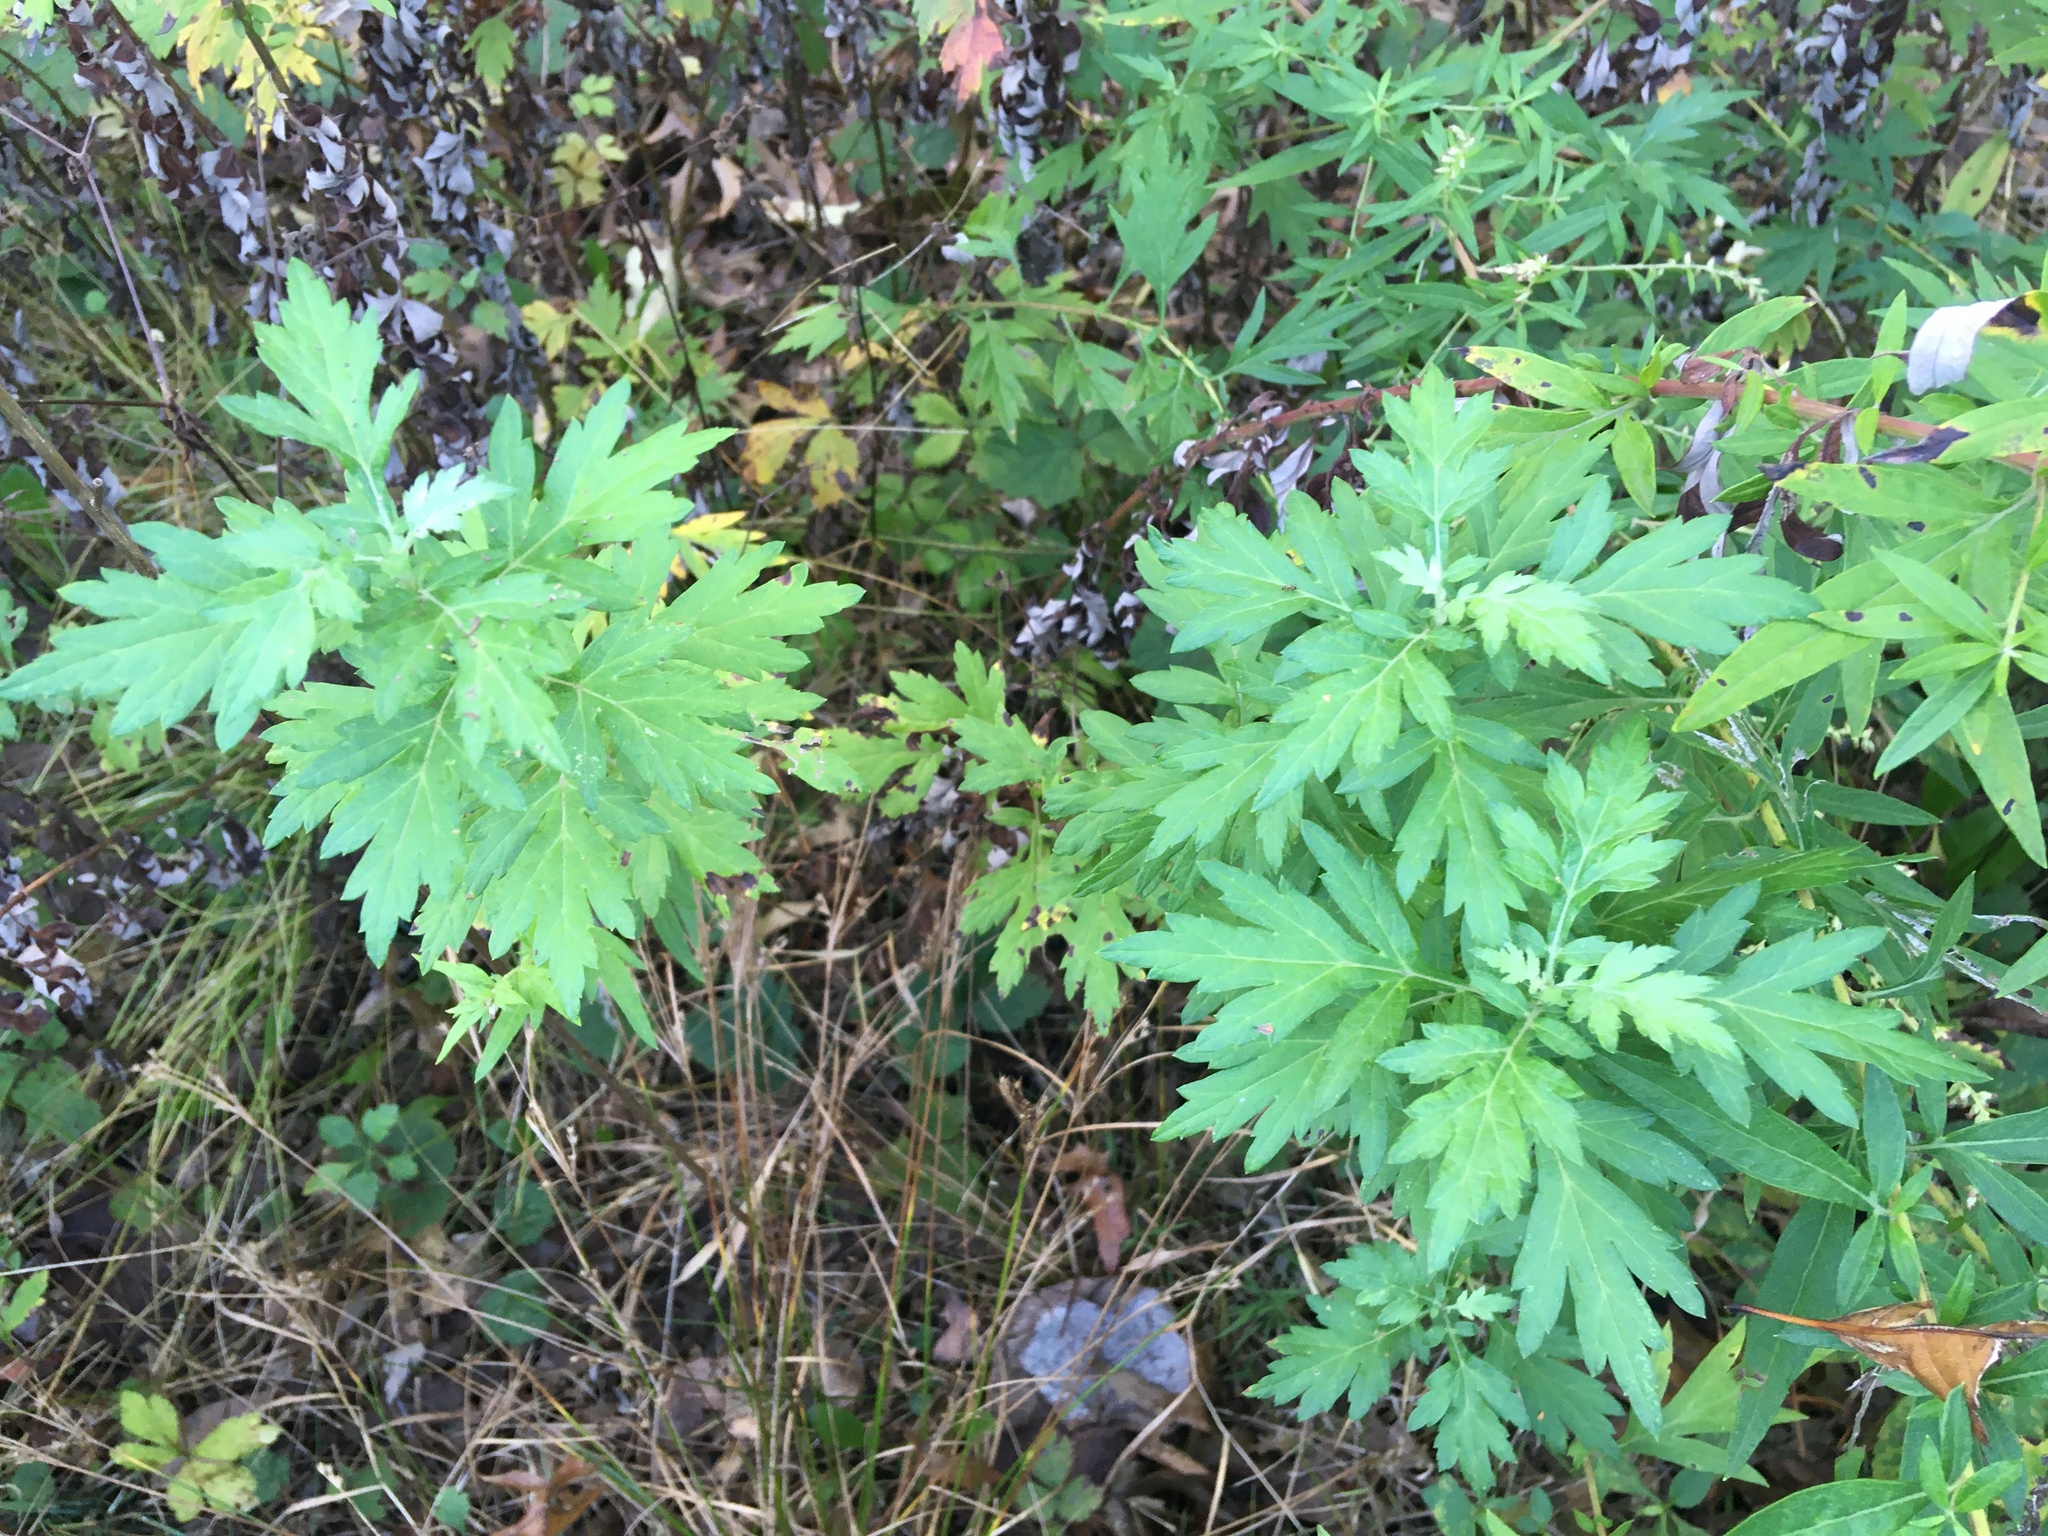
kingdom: Plantae
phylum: Tracheophyta
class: Magnoliopsida
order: Asterales
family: Asteraceae
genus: Artemisia
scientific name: Artemisia vulgaris
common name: Mugwort
